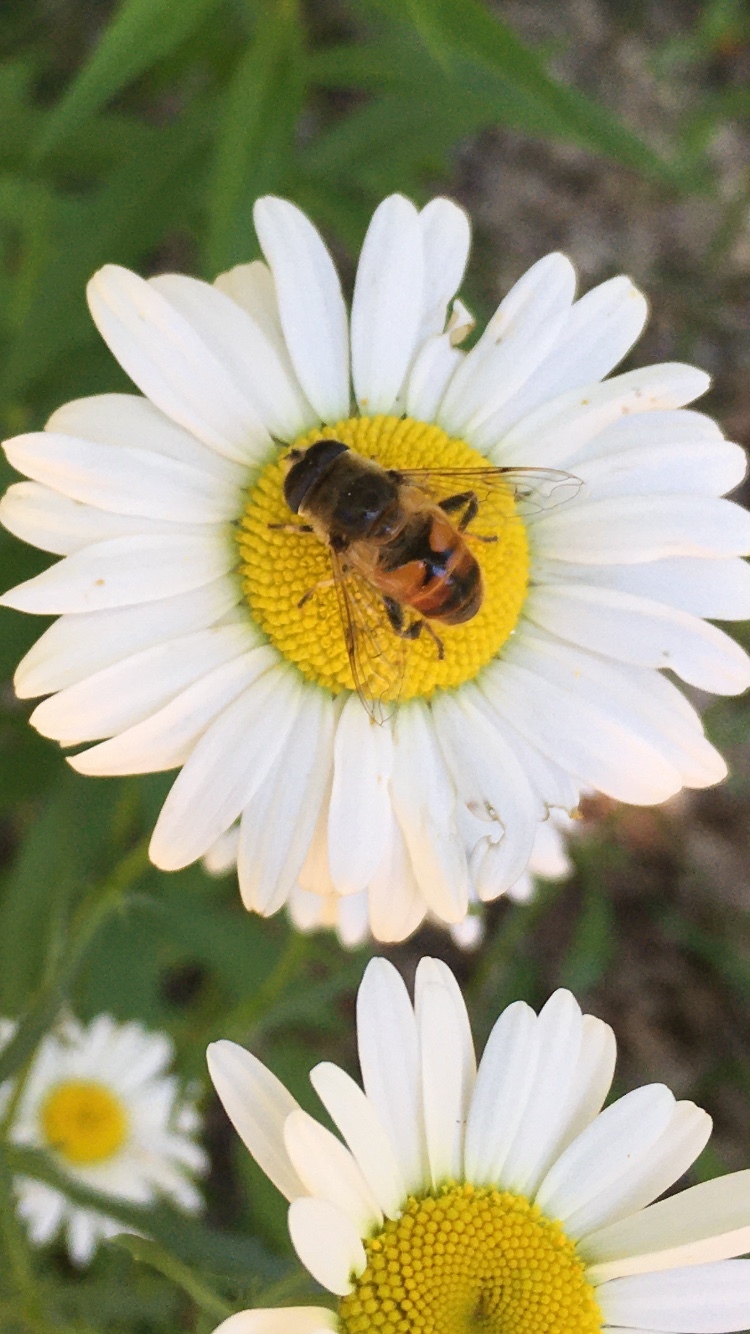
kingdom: Animalia
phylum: Arthropoda
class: Insecta
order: Diptera
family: Syrphidae
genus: Eristalis
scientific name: Eristalis tenax
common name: Drone fly
